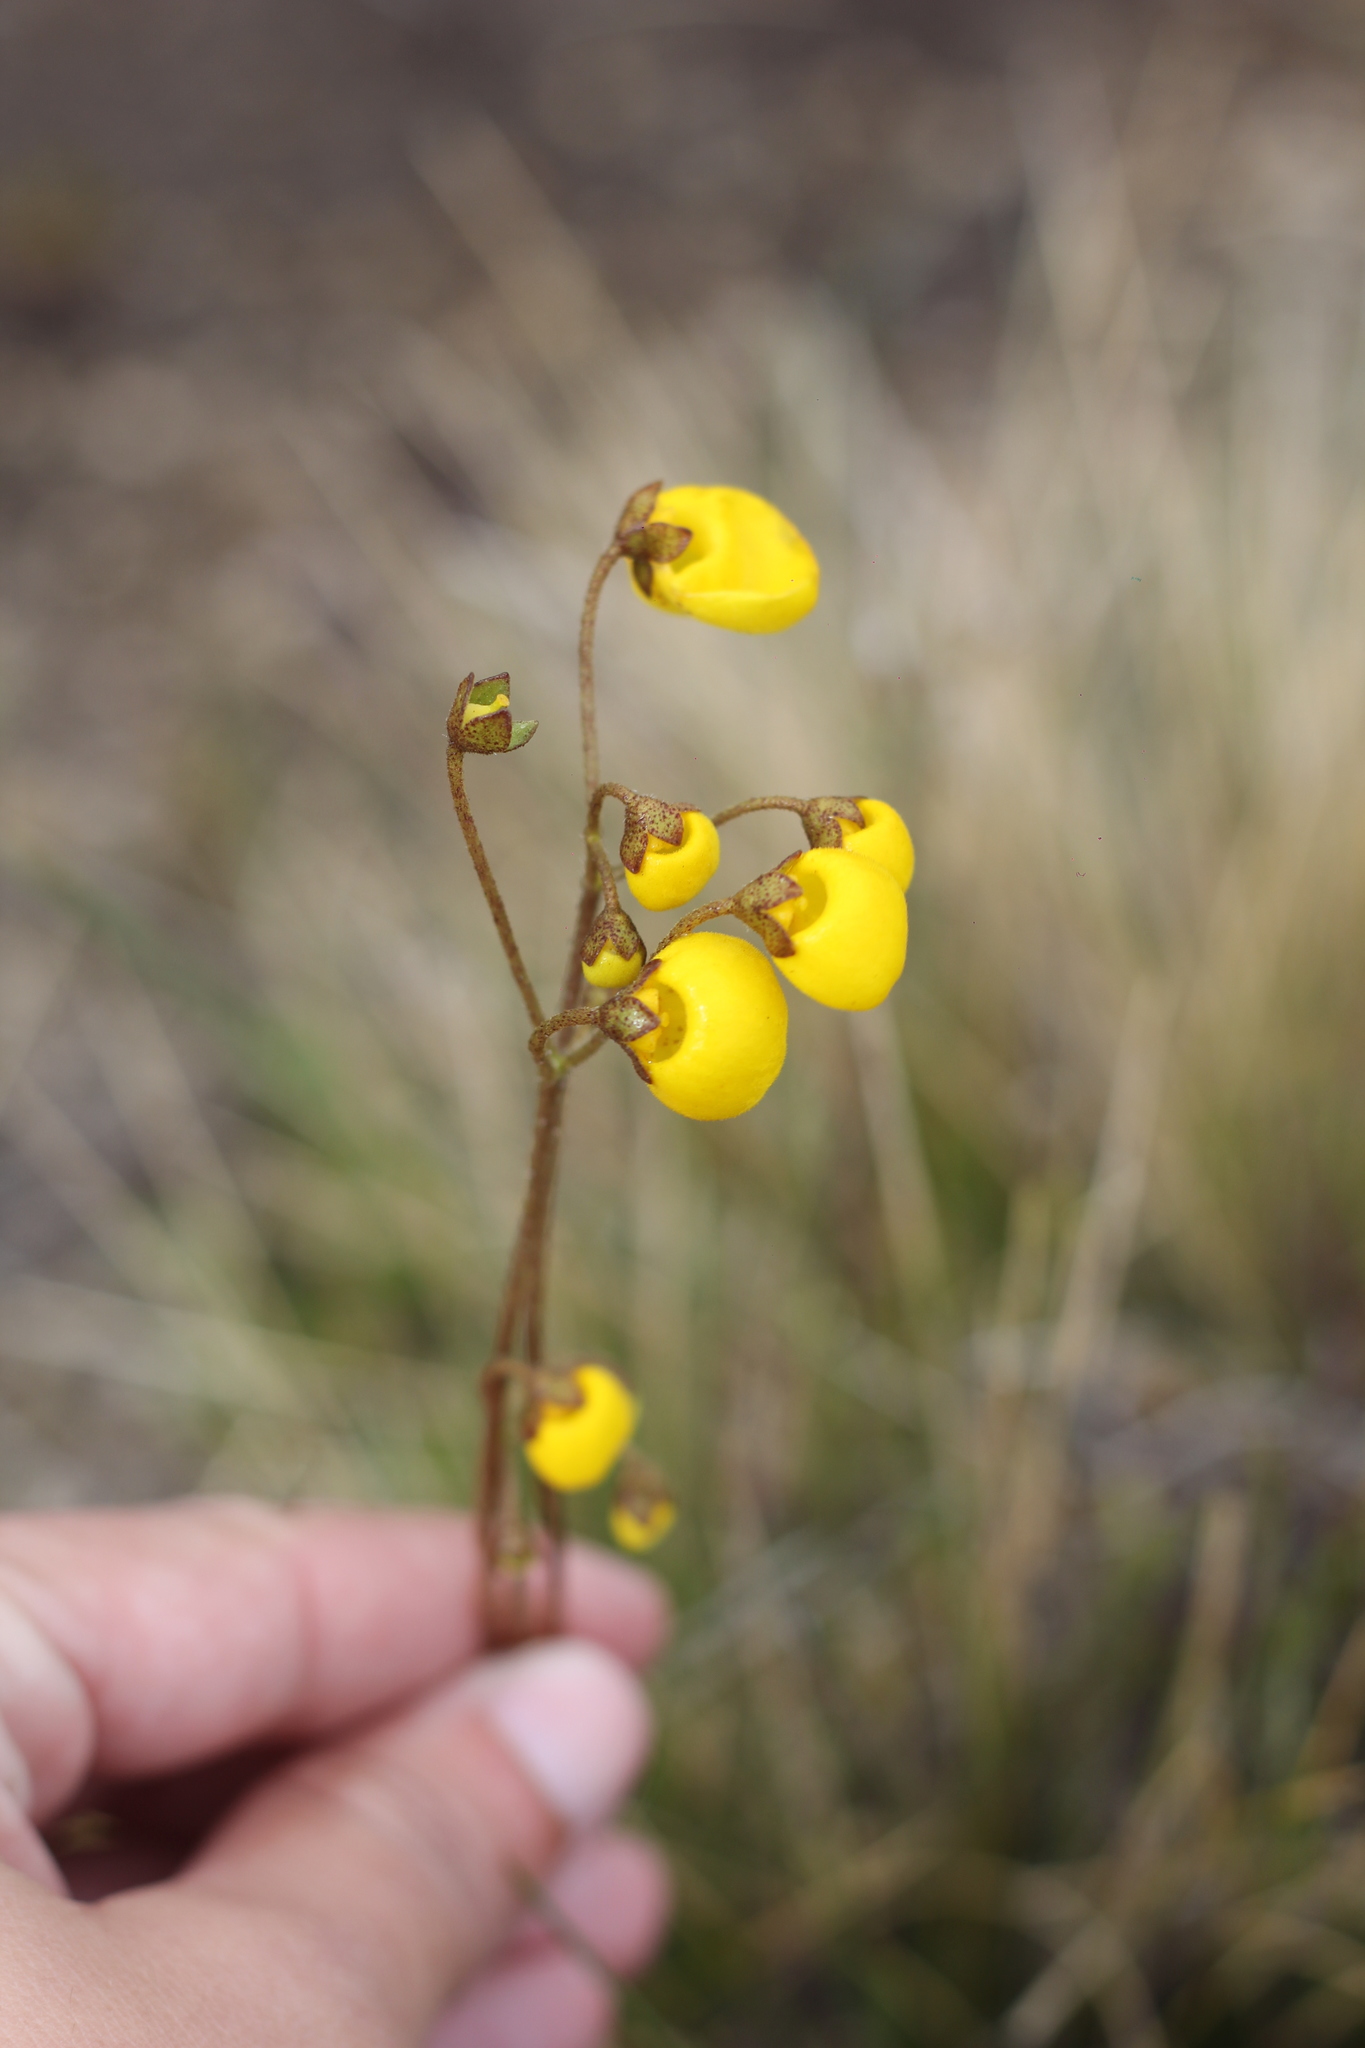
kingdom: Plantae
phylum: Tracheophyta
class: Magnoliopsida
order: Lamiales
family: Calceolariaceae
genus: Calceolaria
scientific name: Calceolaria filicaulis
